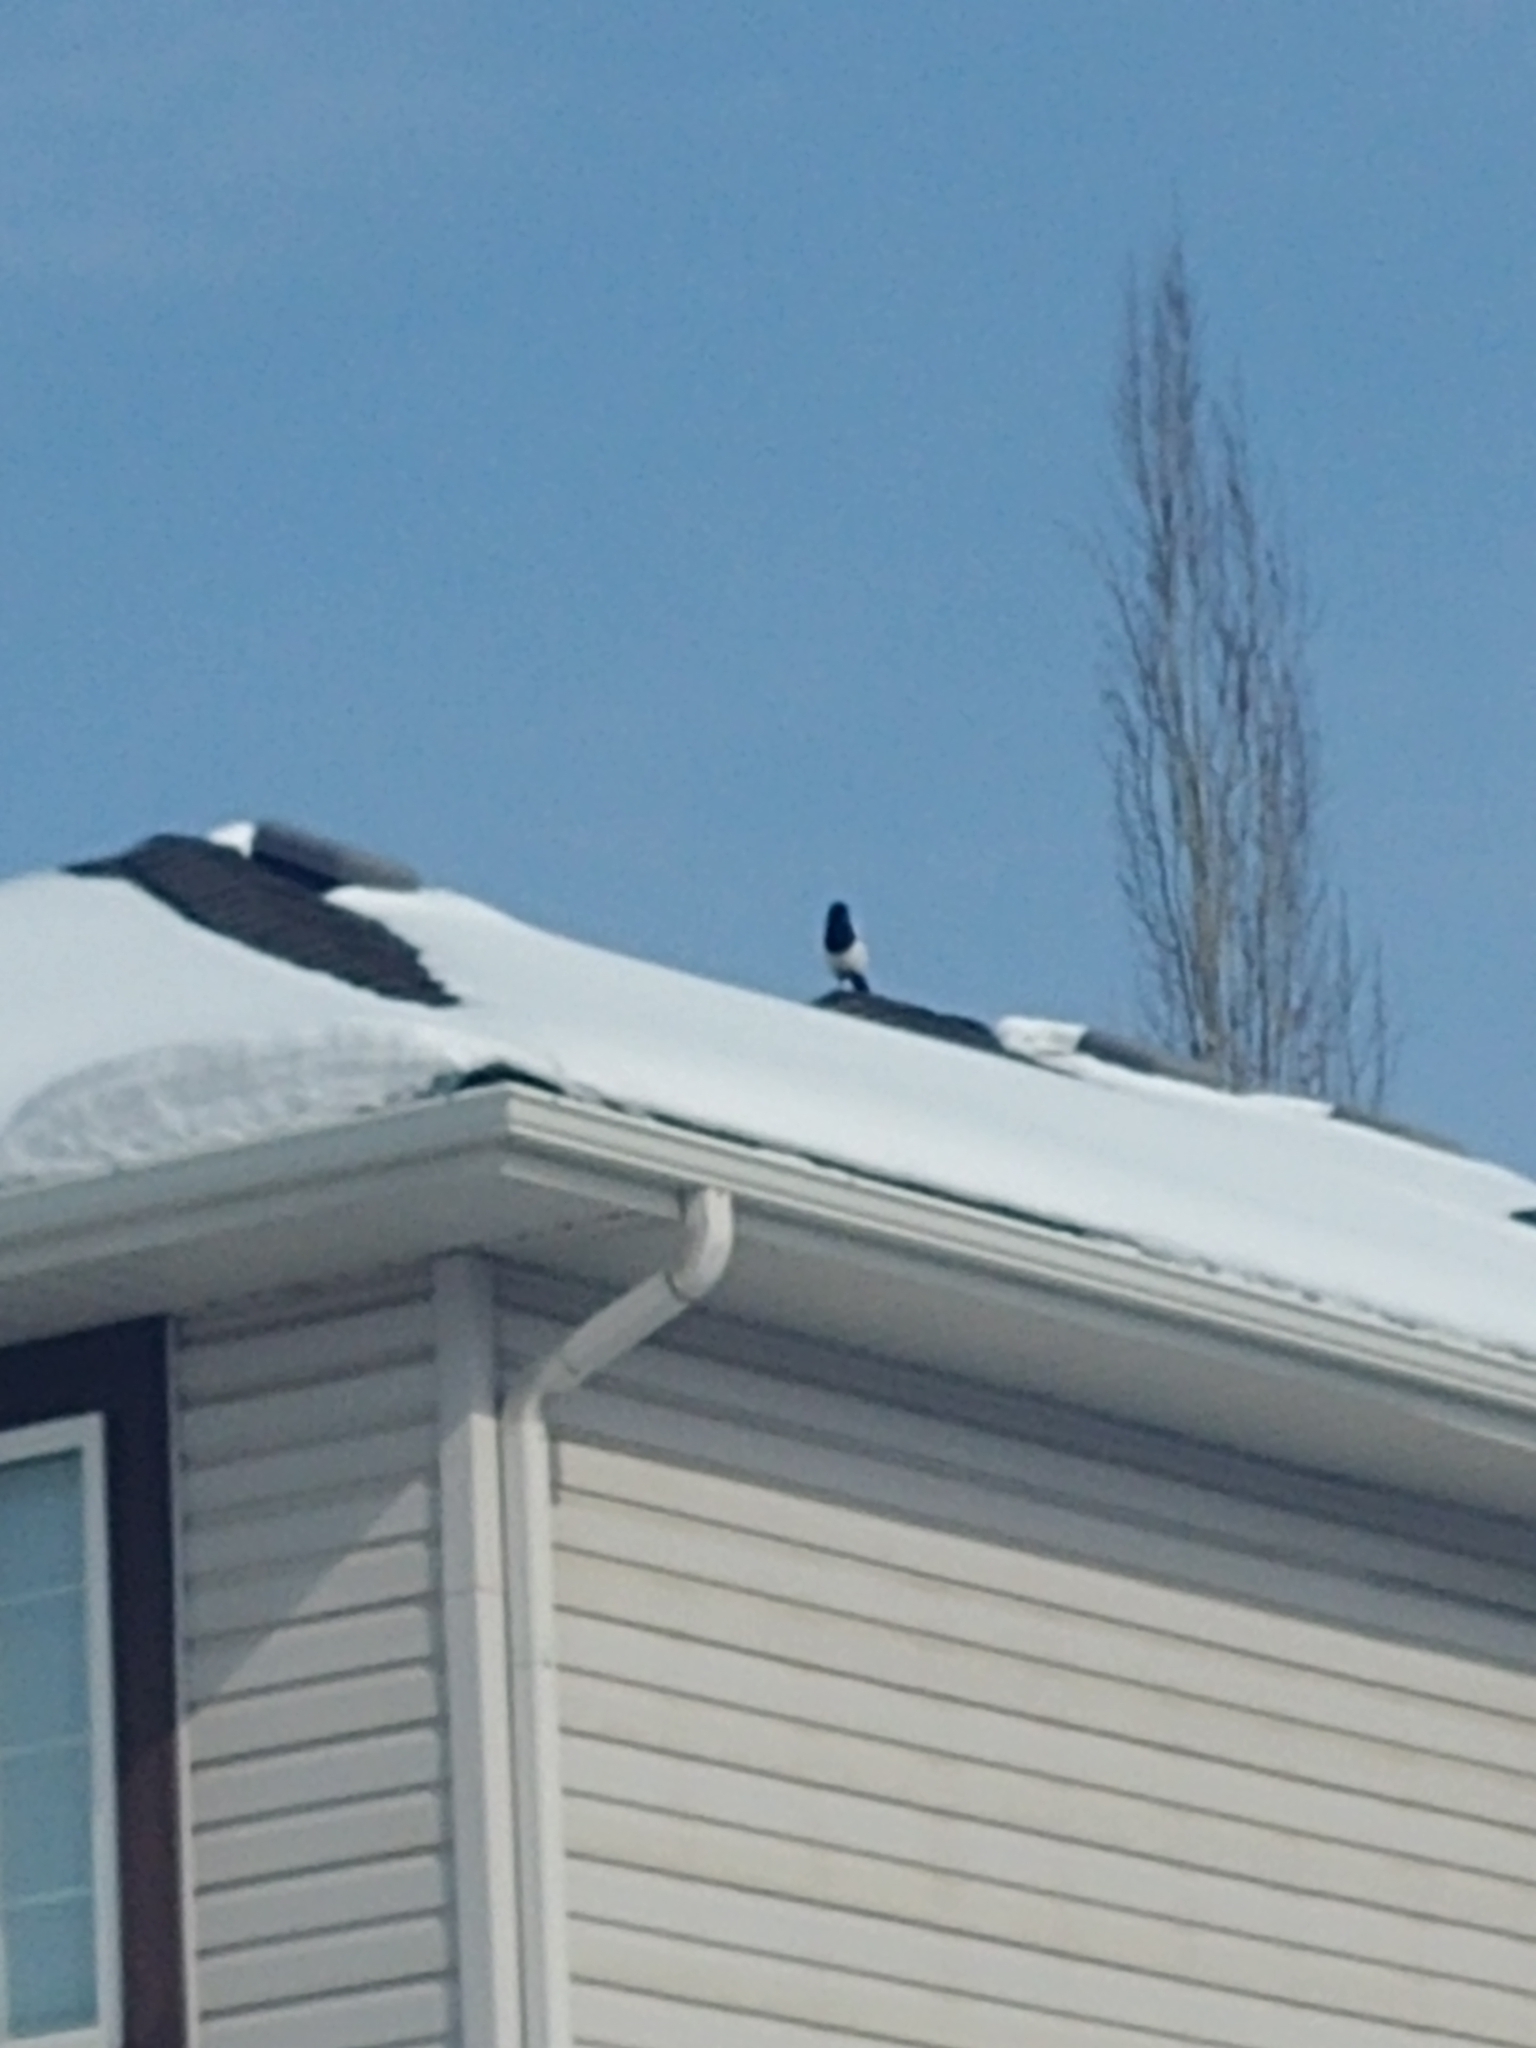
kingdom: Animalia
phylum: Chordata
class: Aves
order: Passeriformes
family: Corvidae
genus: Pica
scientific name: Pica hudsonia
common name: Black-billed magpie
